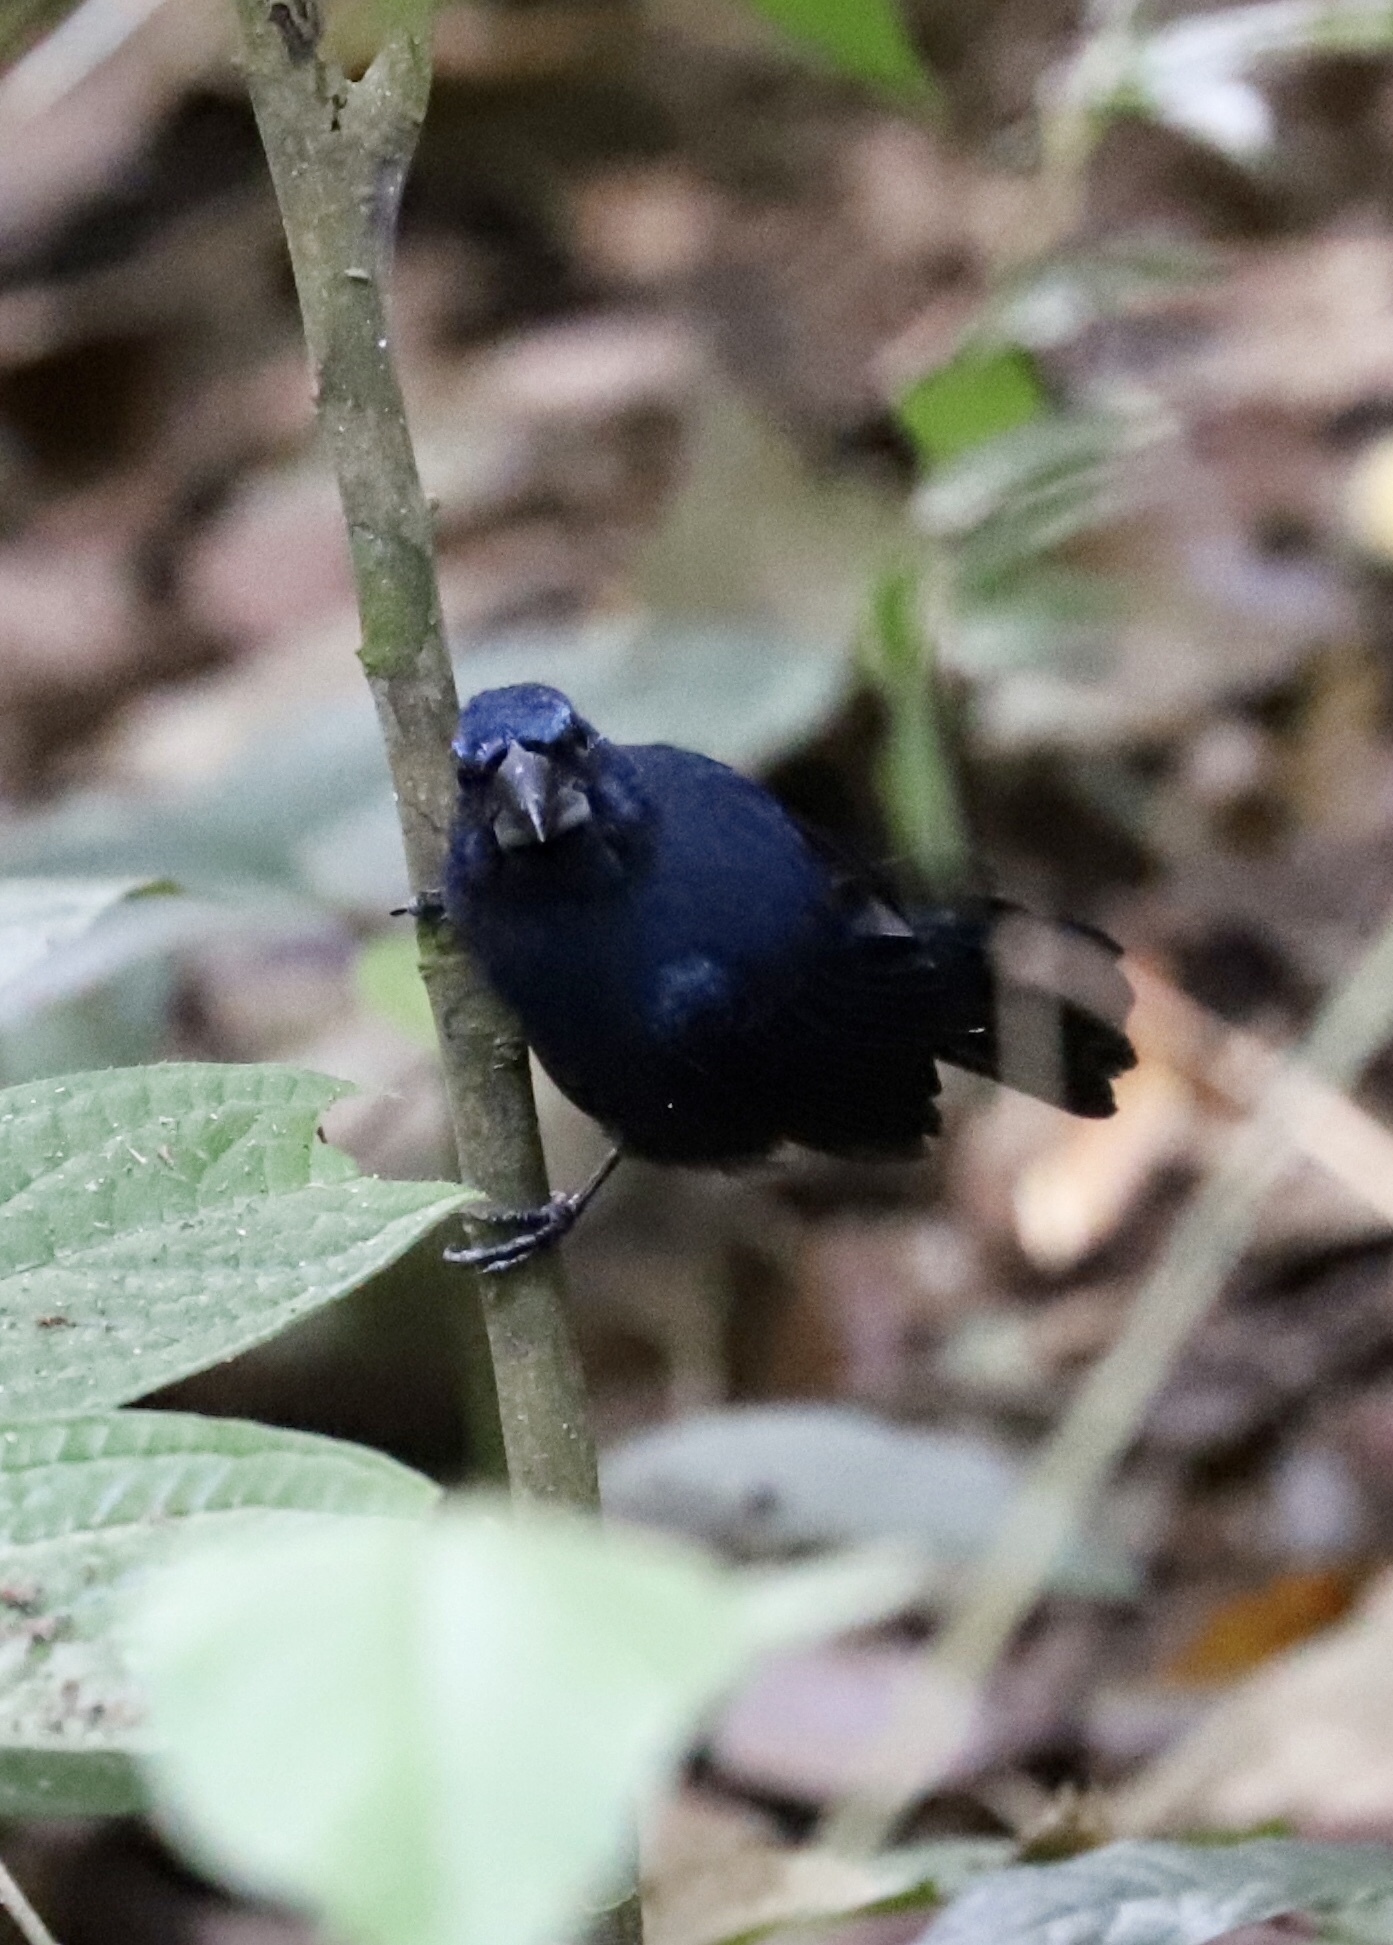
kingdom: Animalia
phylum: Chordata
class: Aves
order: Passeriformes
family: Cardinalidae
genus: Cyanocompsa
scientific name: Cyanocompsa cyanoides
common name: Blue-black grosbeak
